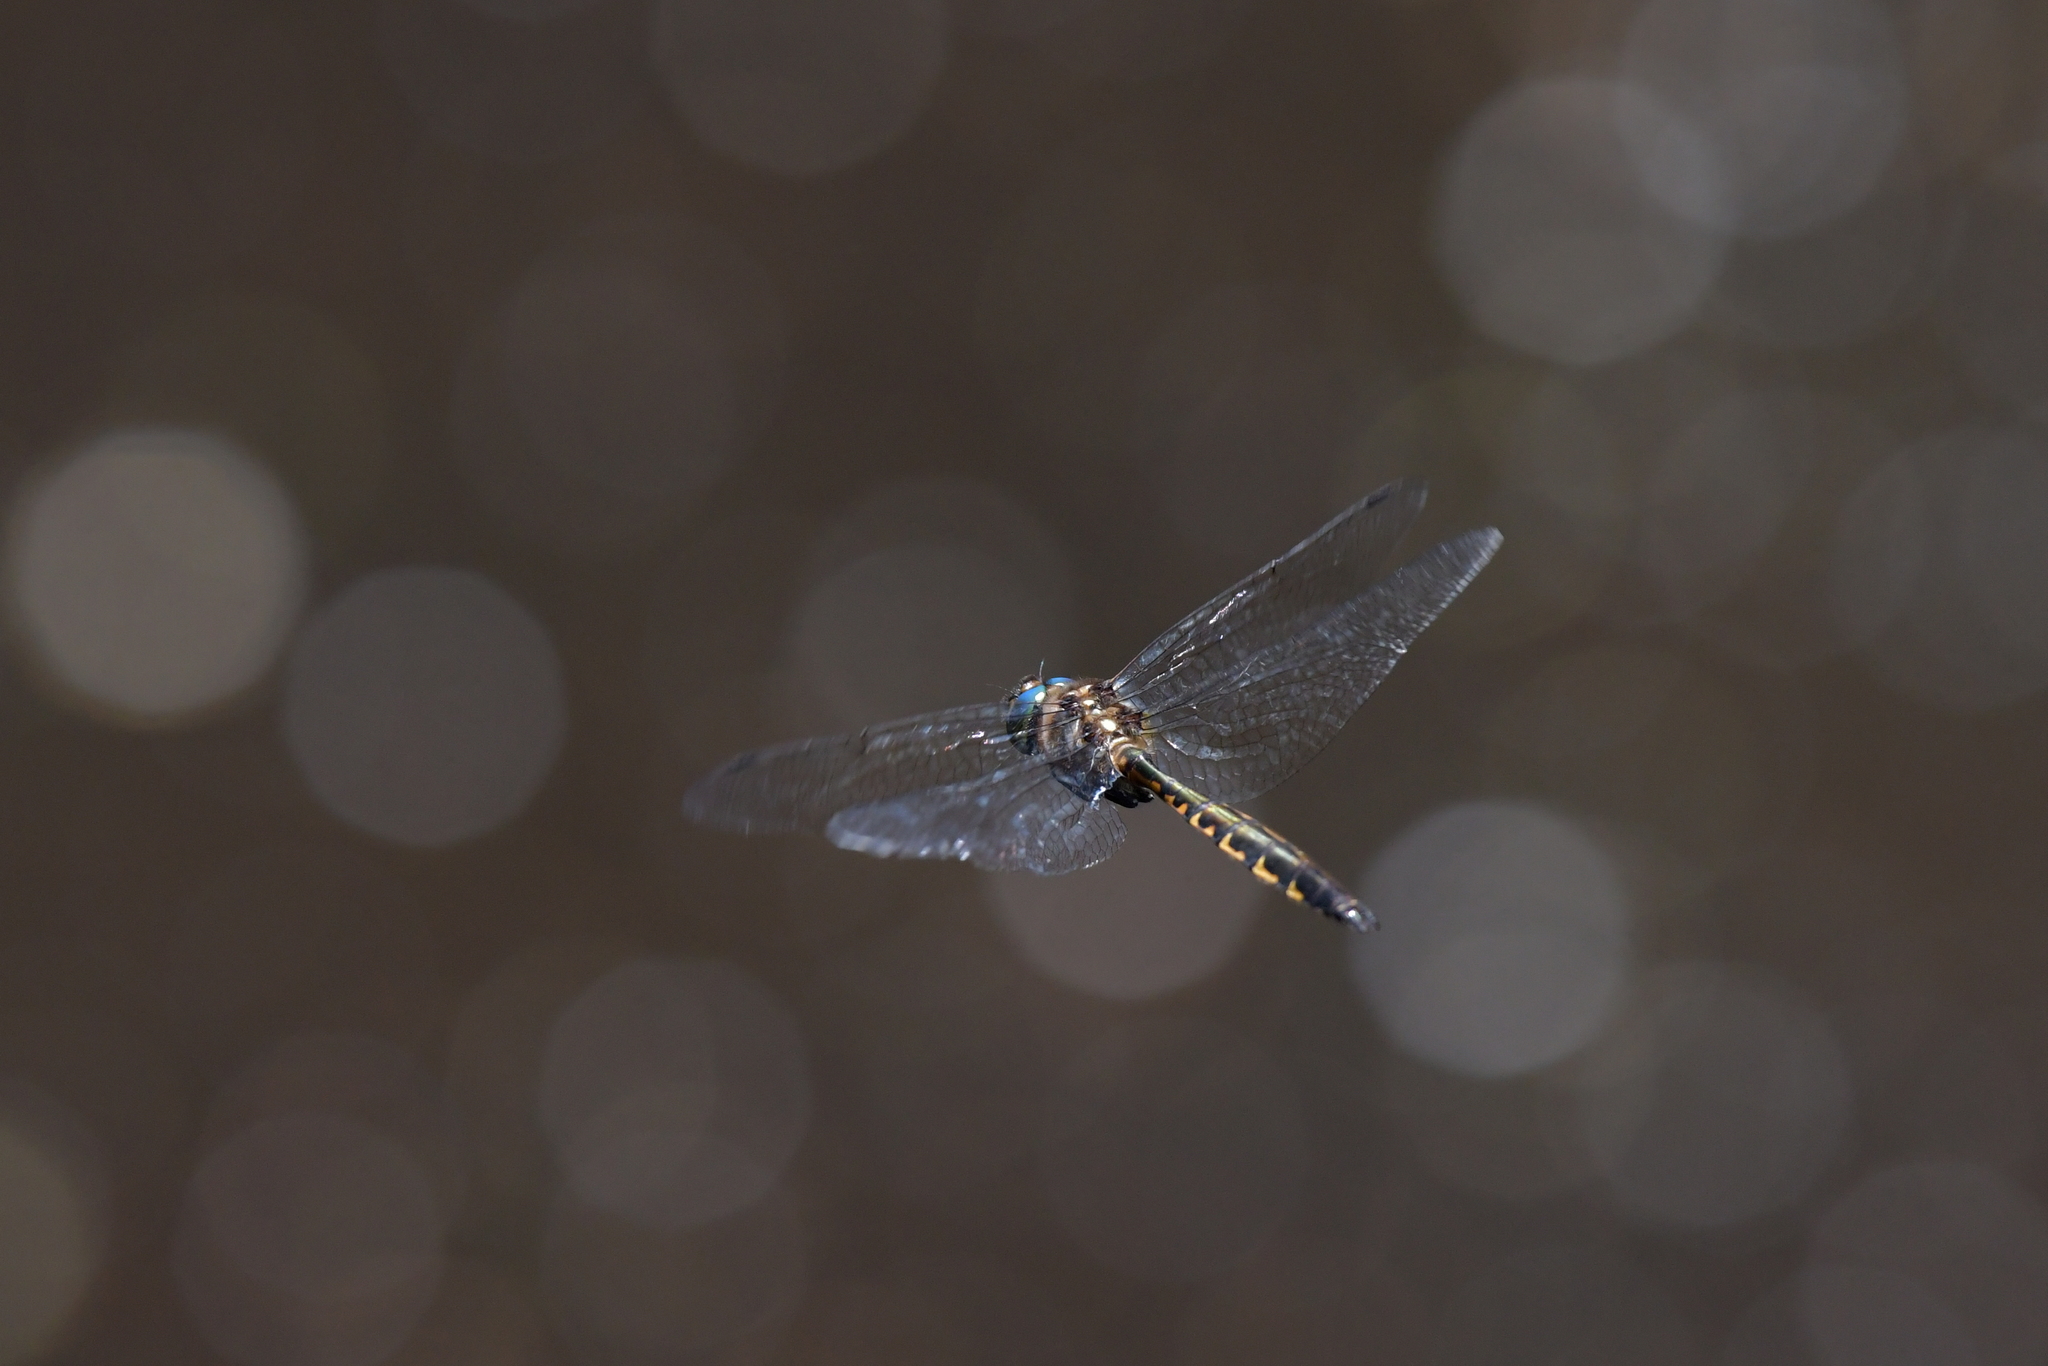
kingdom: Animalia
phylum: Arthropoda
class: Insecta
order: Odonata
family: Corduliidae
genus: Hemicordulia
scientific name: Hemicordulia armstrongi
